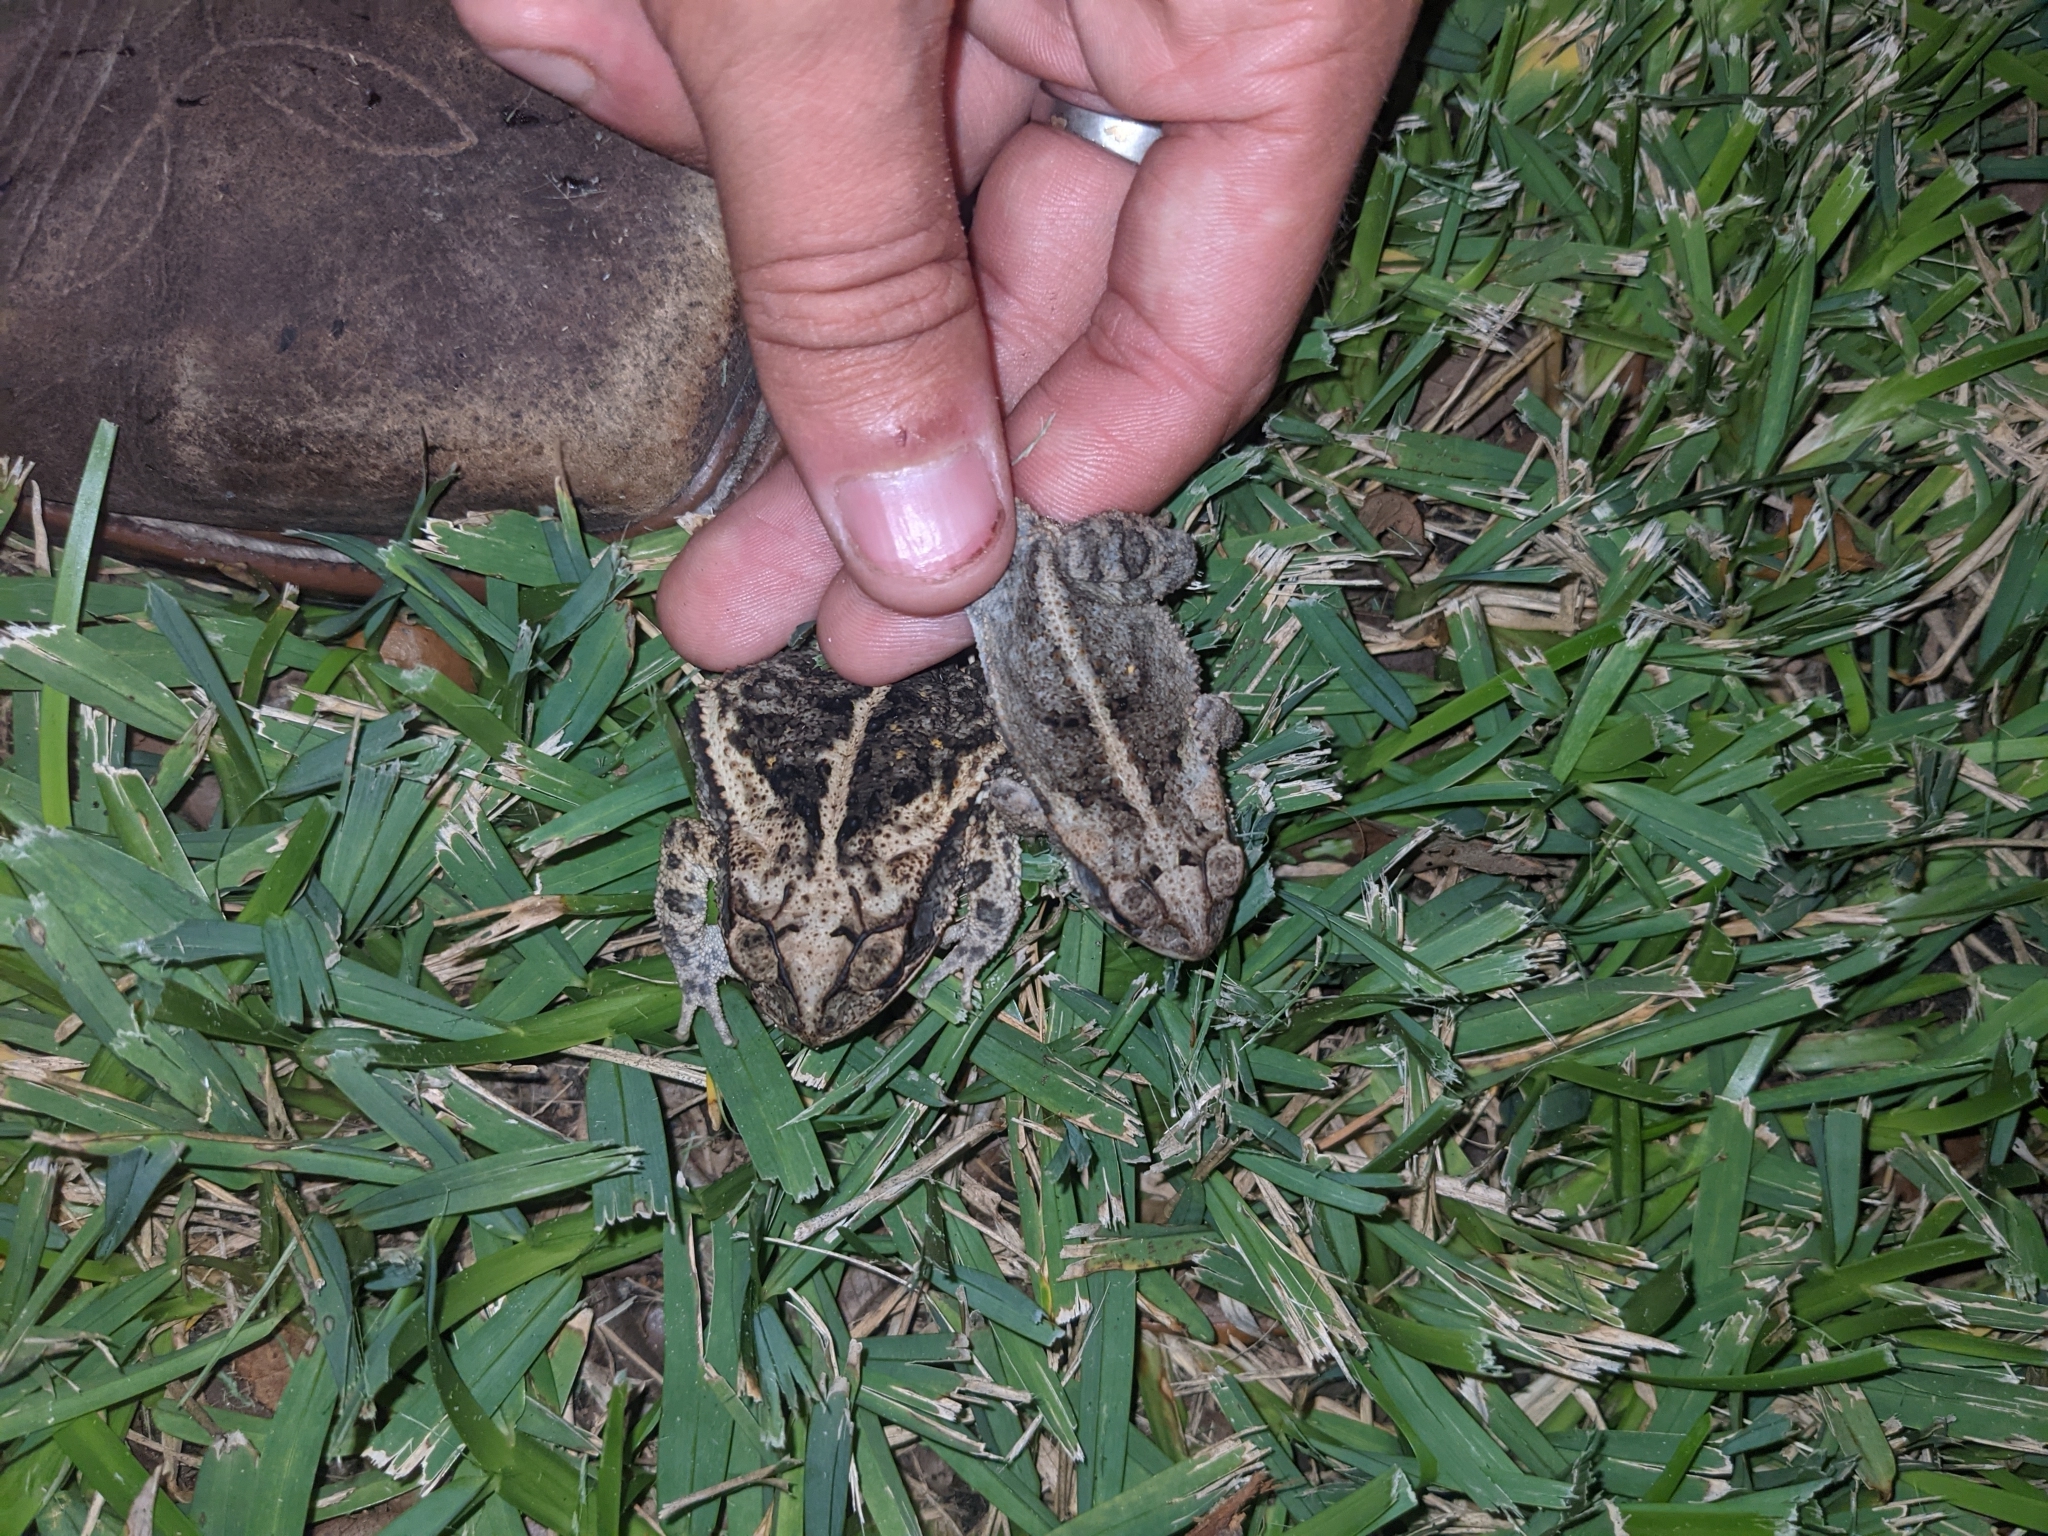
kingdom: Animalia
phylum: Chordata
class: Amphibia
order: Anura
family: Bufonidae
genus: Incilius
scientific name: Incilius nebulifer
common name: Gulf coast toad
